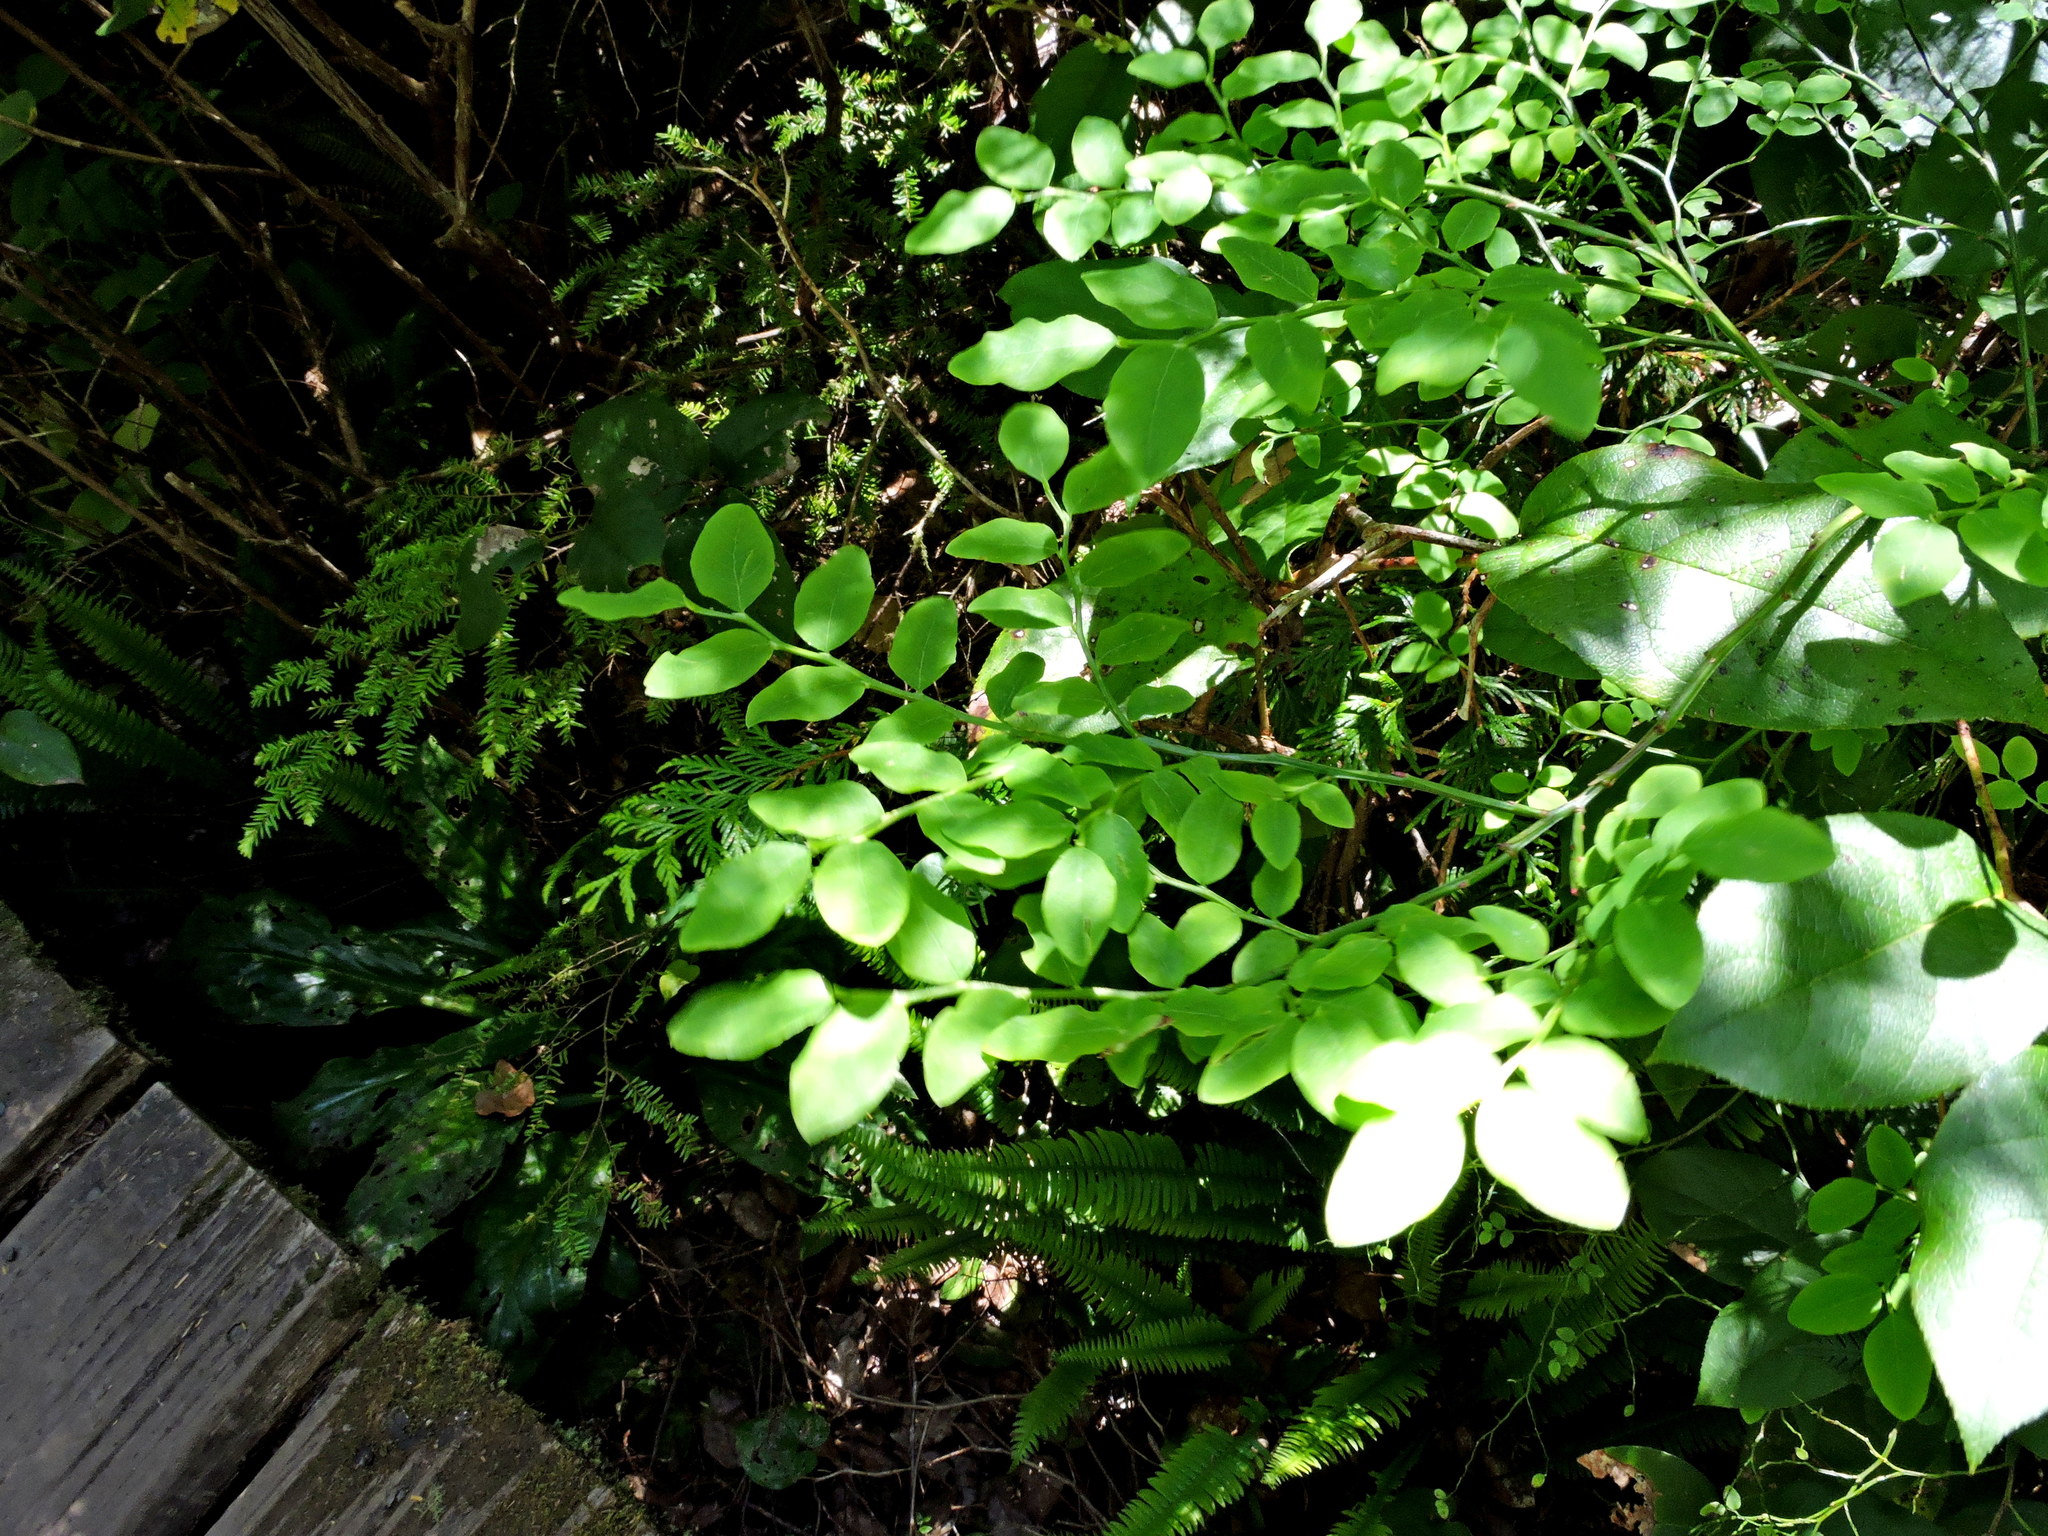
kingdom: Plantae
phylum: Tracheophyta
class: Magnoliopsida
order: Ericales
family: Ericaceae
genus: Vaccinium
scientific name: Vaccinium parvifolium
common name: Red-huckleberry
